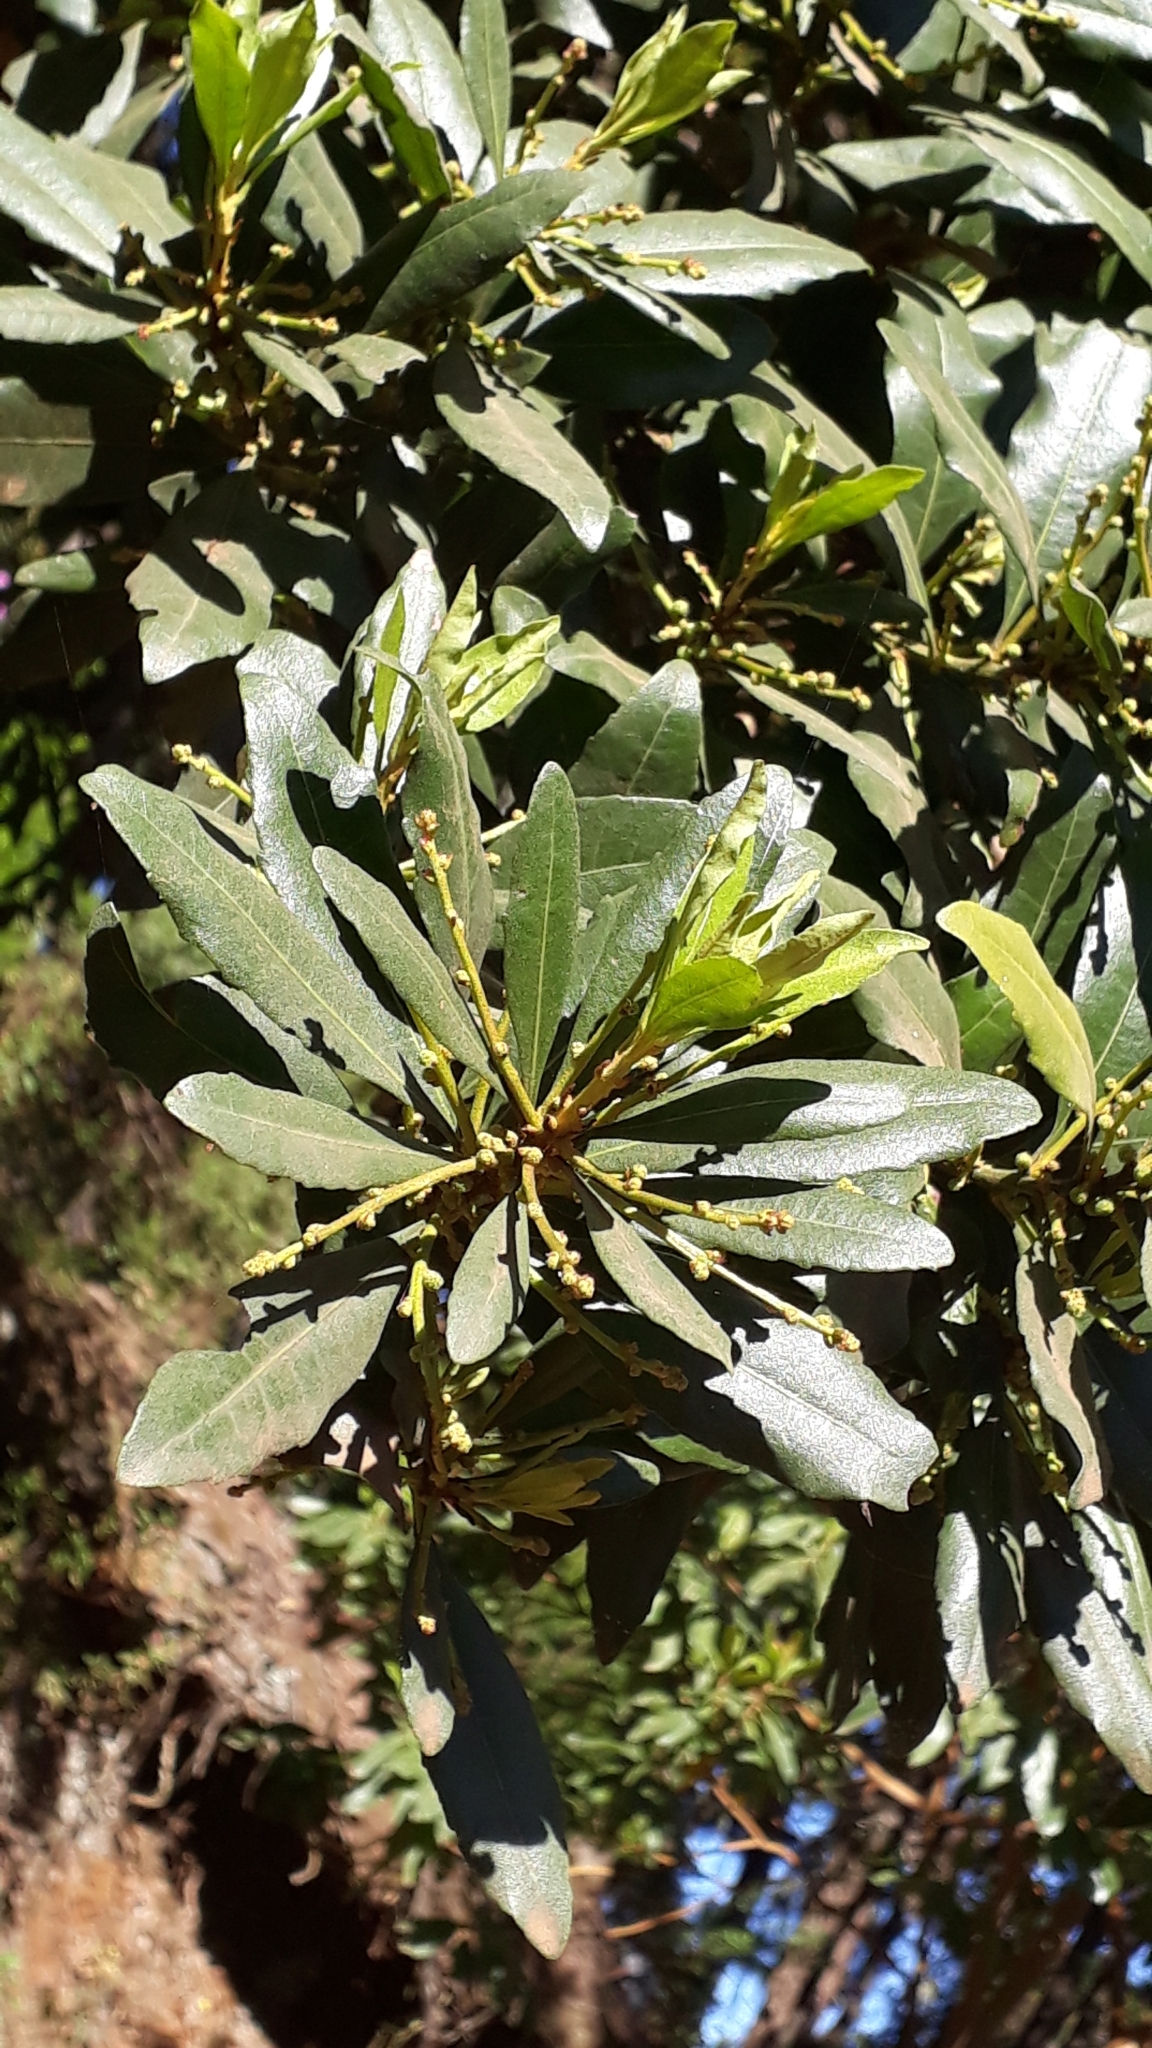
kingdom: Plantae
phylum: Tracheophyta
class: Magnoliopsida
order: Fagales
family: Myricaceae
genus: Morella
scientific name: Morella faya
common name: Firetree
